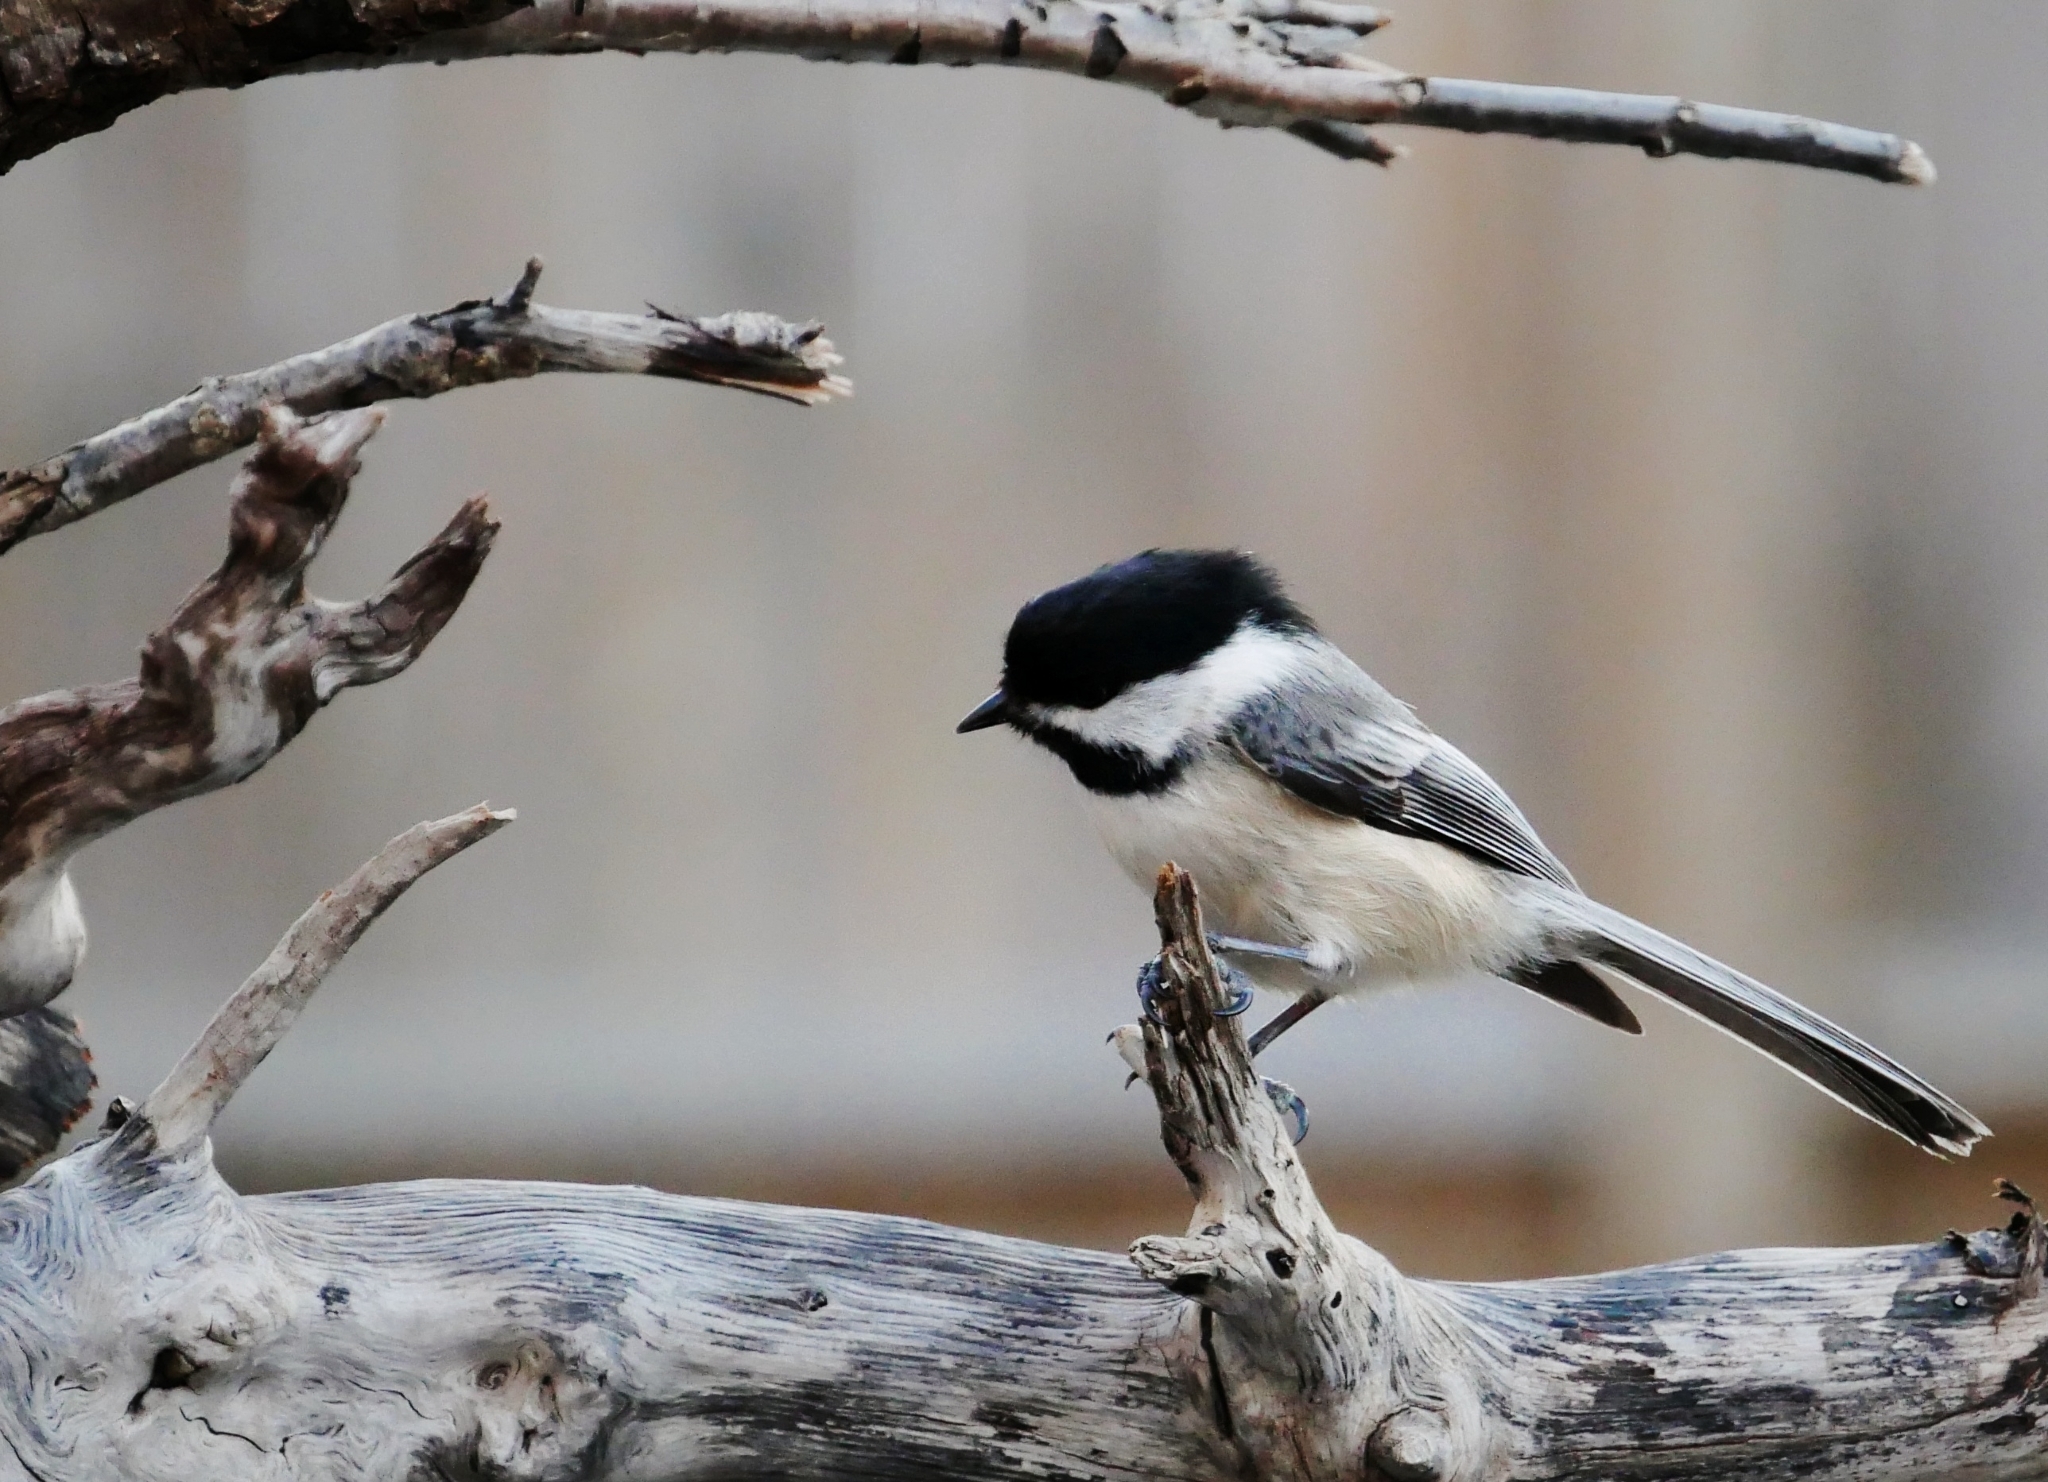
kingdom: Animalia
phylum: Chordata
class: Aves
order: Passeriformes
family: Paridae
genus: Poecile
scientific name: Poecile atricapillus
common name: Black-capped chickadee
